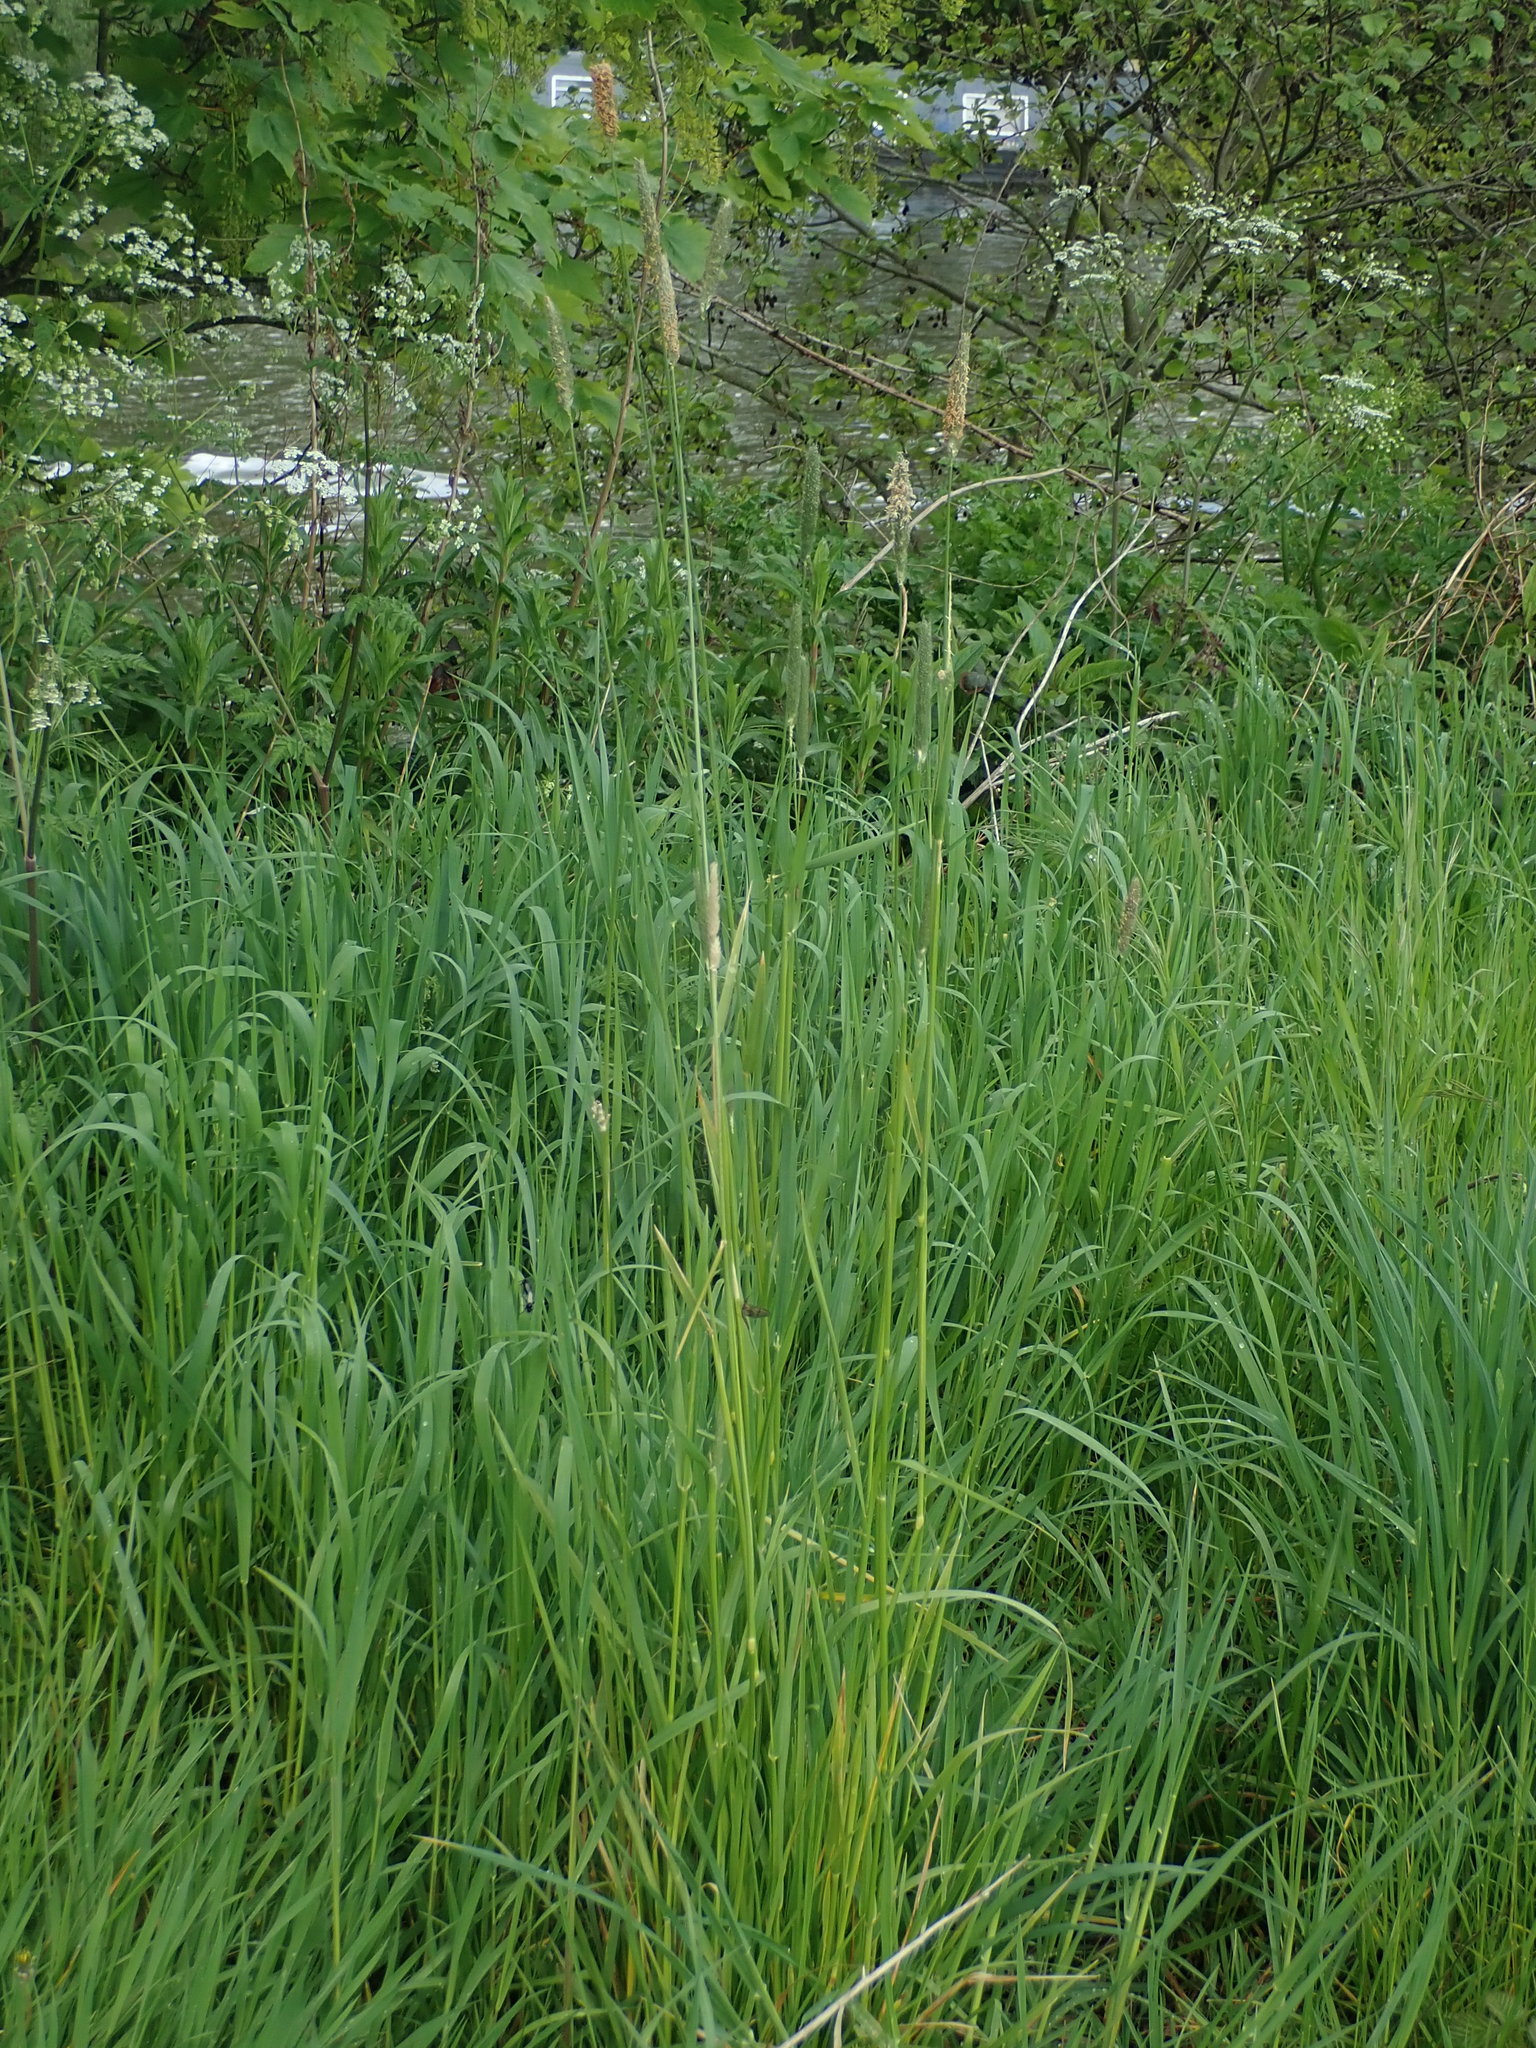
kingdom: Plantae
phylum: Tracheophyta
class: Liliopsida
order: Poales
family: Poaceae
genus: Alopecurus
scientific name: Alopecurus pratensis
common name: Meadow foxtail
